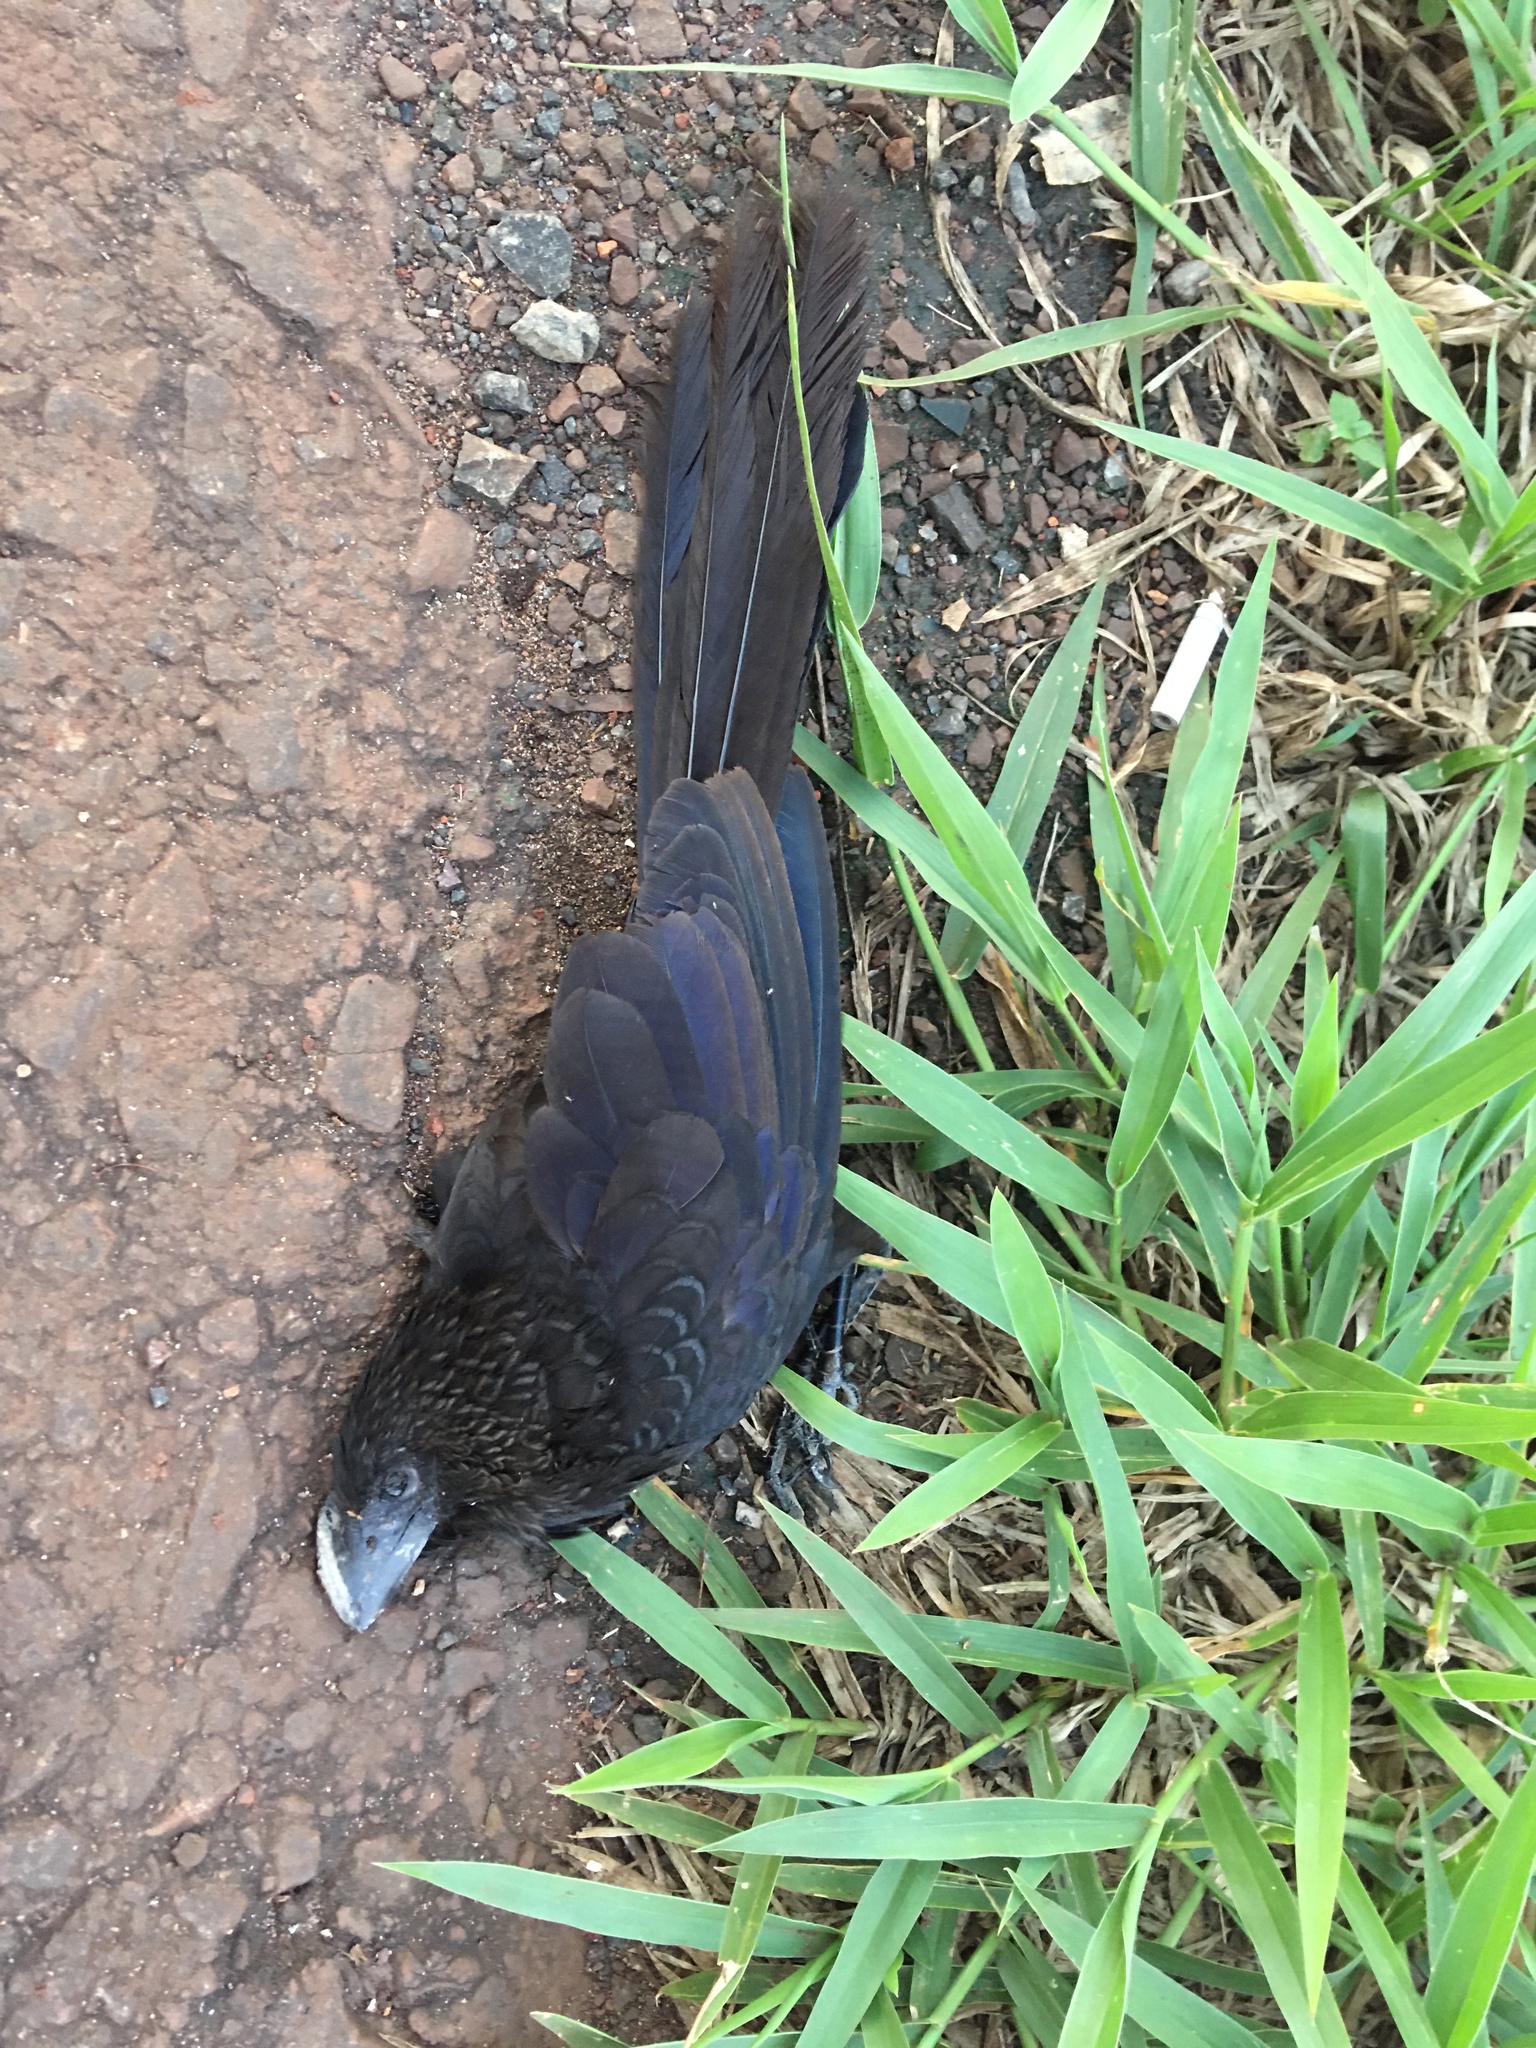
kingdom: Animalia
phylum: Chordata
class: Aves
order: Cuculiformes
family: Cuculidae
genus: Crotophaga
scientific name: Crotophaga ani
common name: Smooth-billed ani
